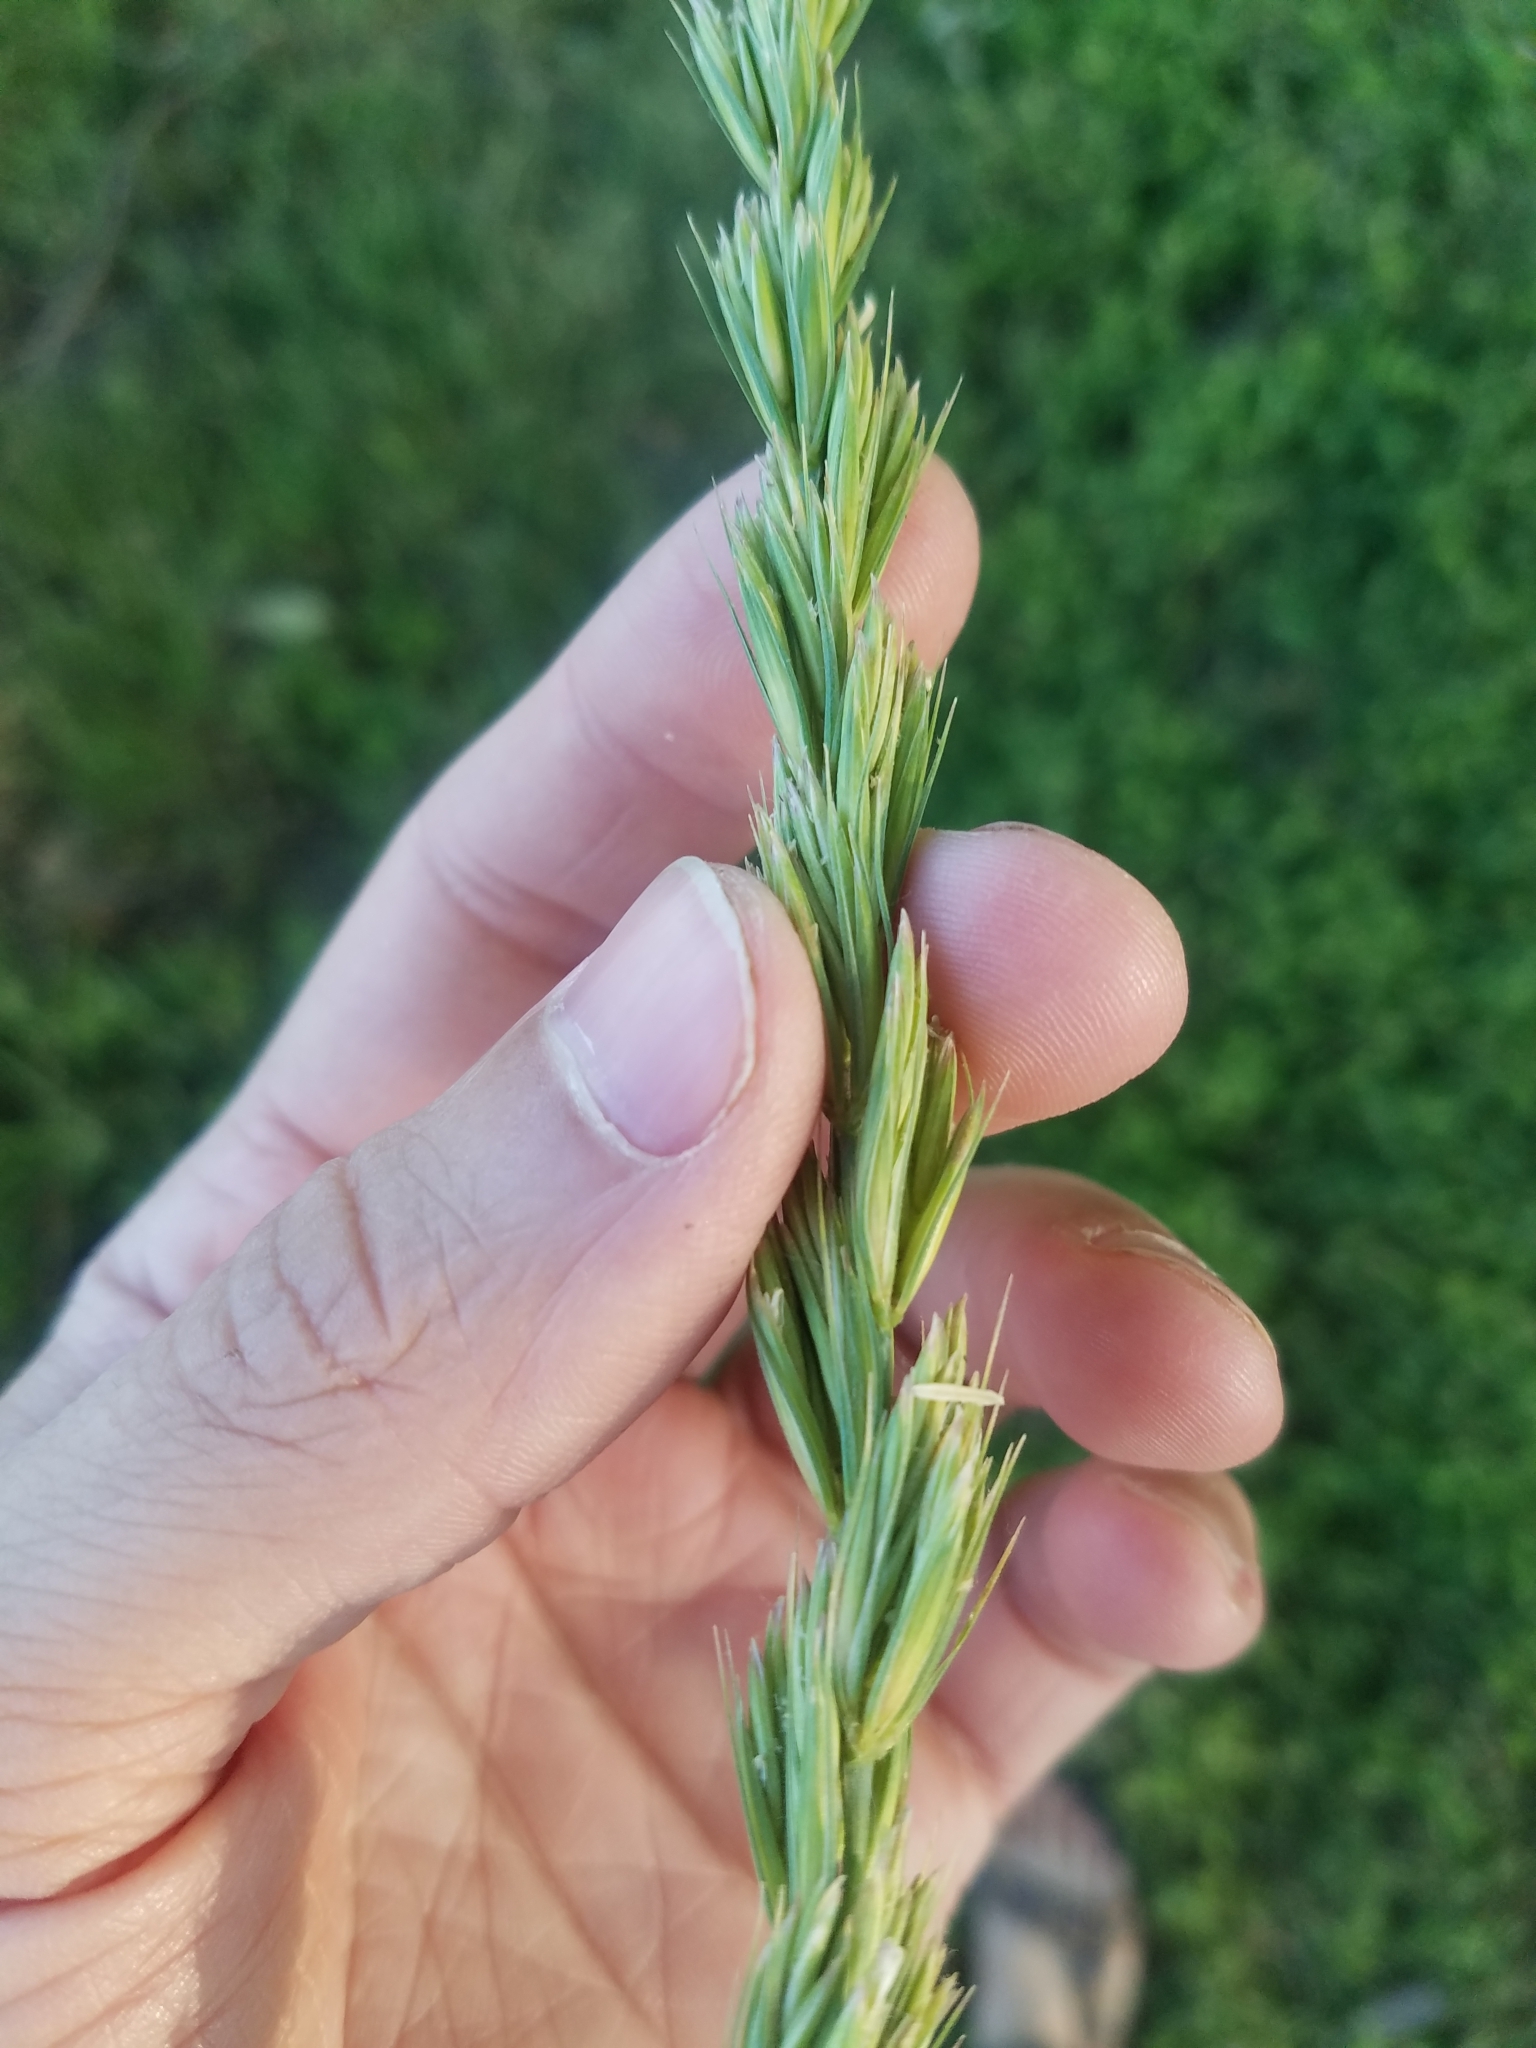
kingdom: Plantae
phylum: Tracheophyta
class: Liliopsida
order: Poales
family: Poaceae
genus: Leymus
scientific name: Leymus cinereus
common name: Basin wild rye
